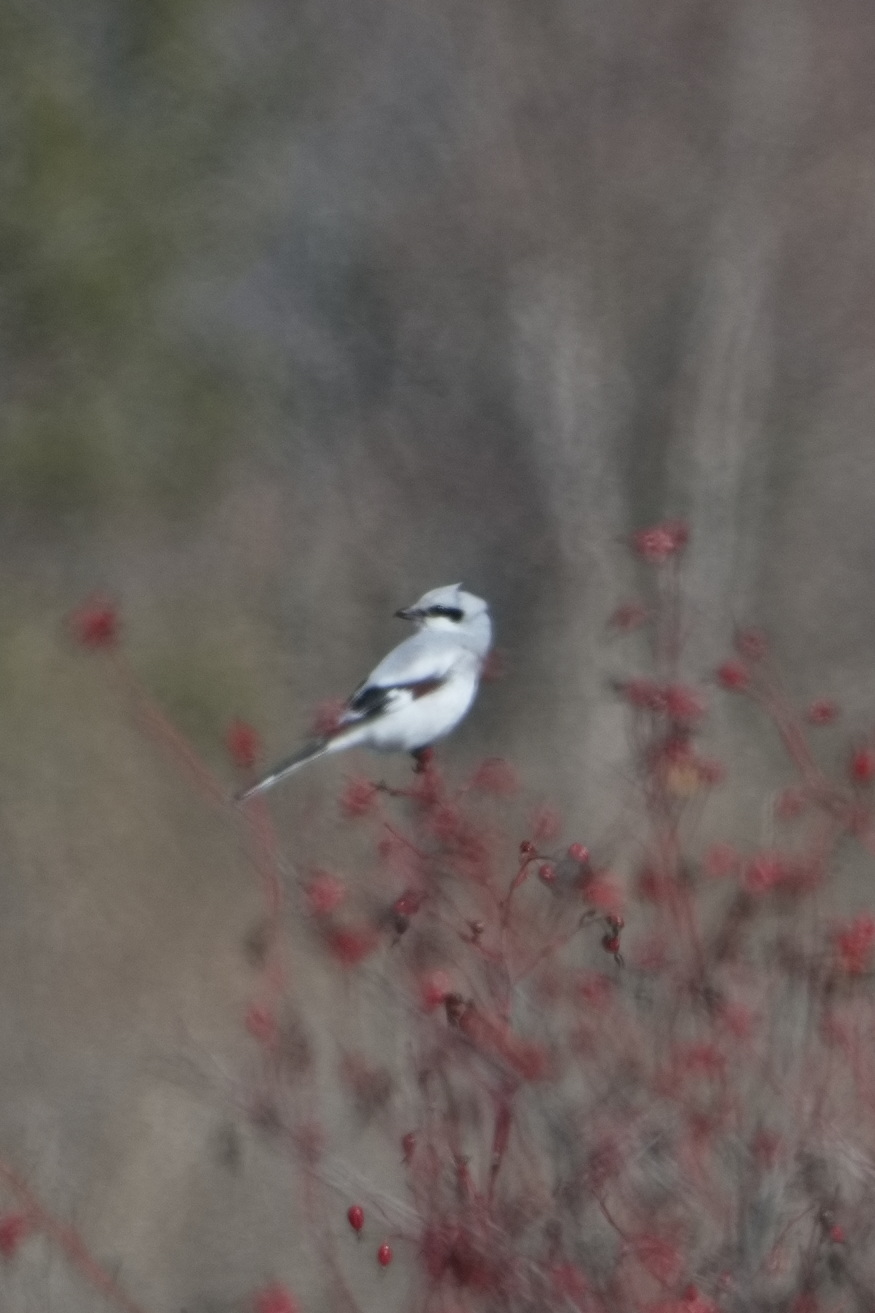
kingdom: Animalia
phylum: Chordata
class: Aves
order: Passeriformes
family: Laniidae
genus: Lanius
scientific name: Lanius excubitor
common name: Great grey shrike
